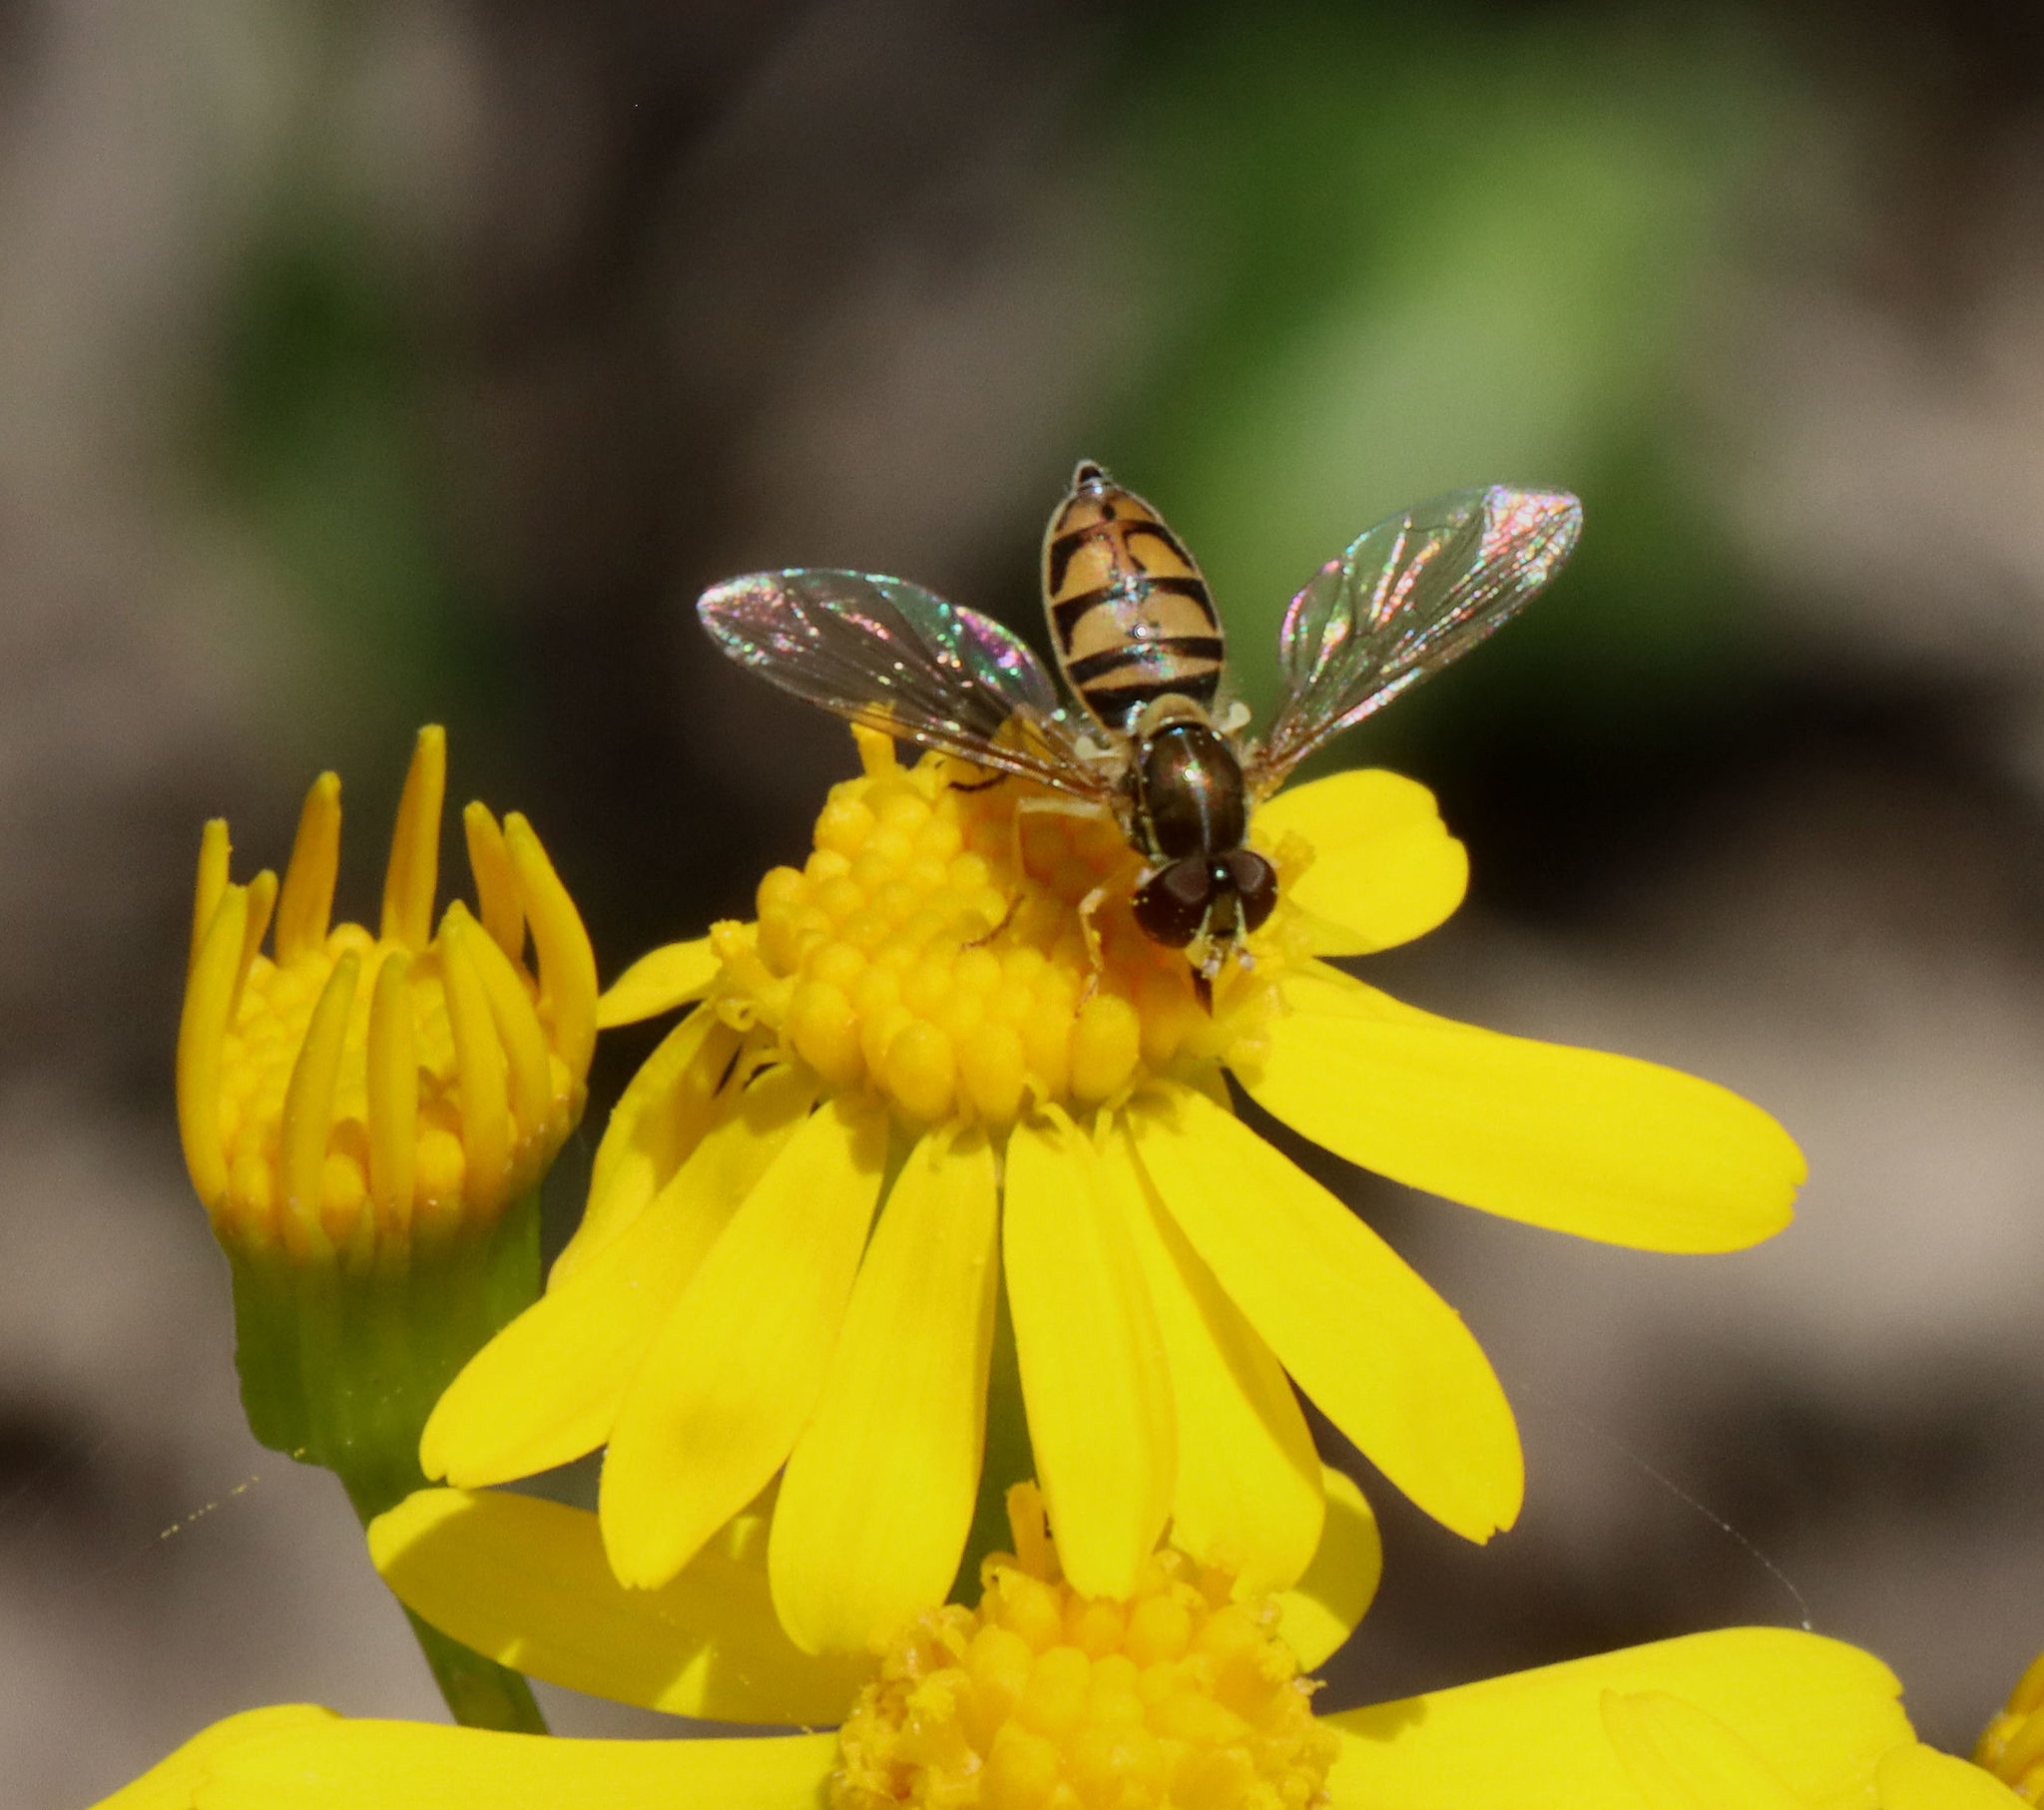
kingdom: Animalia
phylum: Arthropoda
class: Insecta
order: Diptera
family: Syrphidae
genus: Toxomerus
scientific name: Toxomerus marginatus
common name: Syrphid fly
